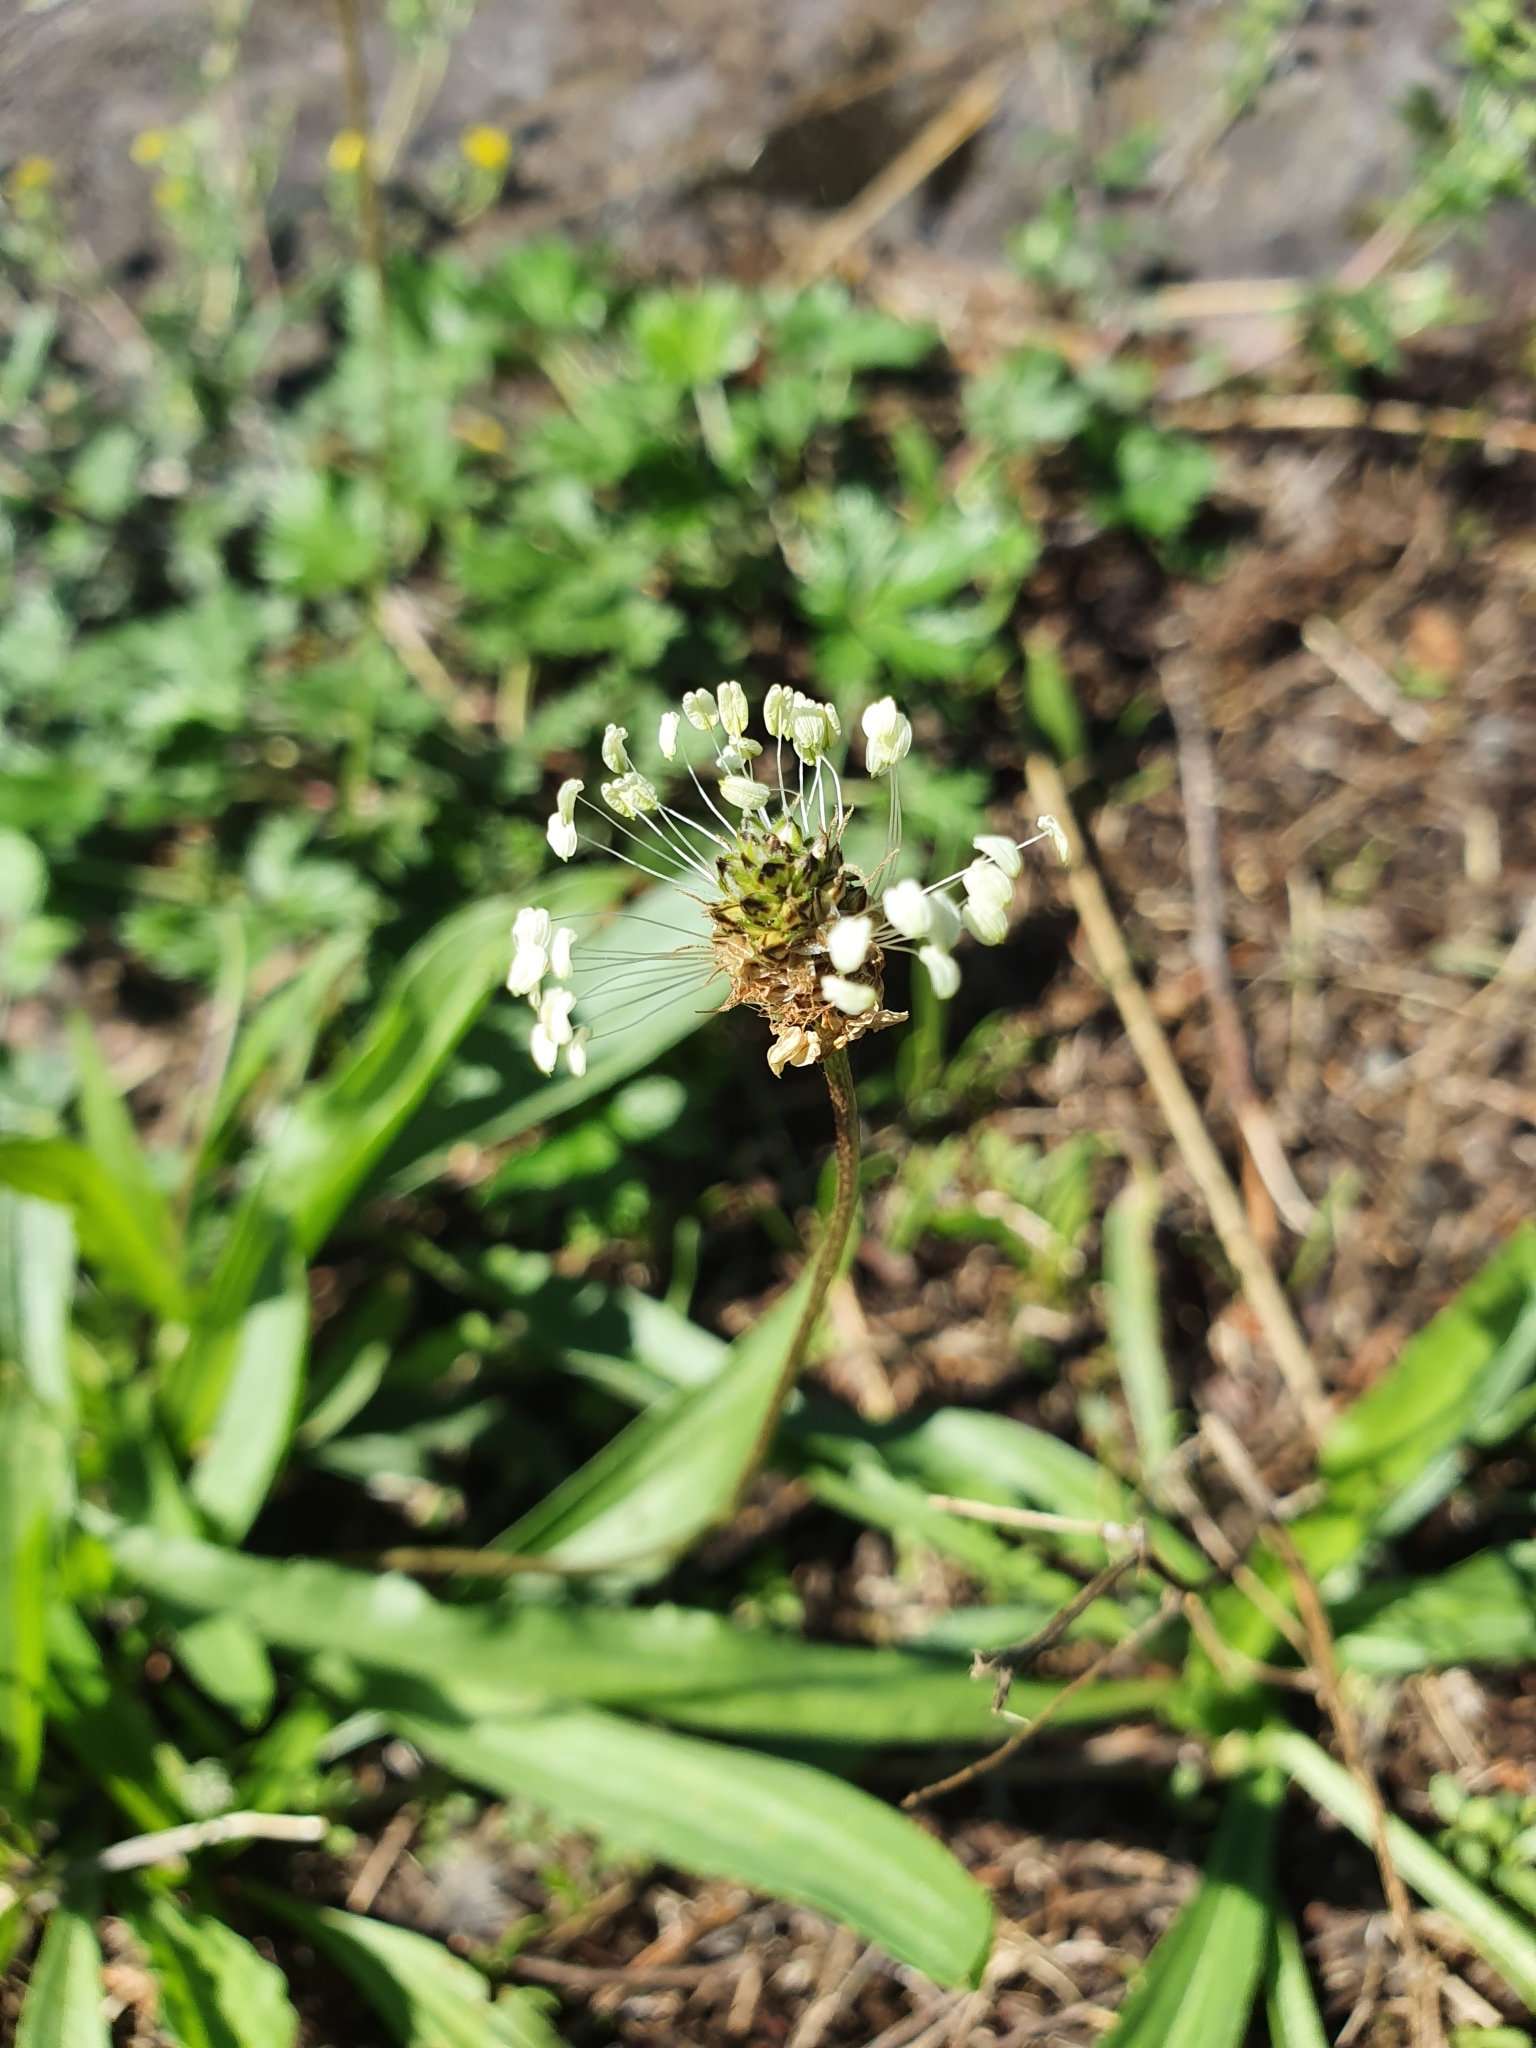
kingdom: Plantae
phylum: Tracheophyta
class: Magnoliopsida
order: Lamiales
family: Plantaginaceae
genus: Plantago
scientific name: Plantago lanceolata
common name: Ribwort plantain
